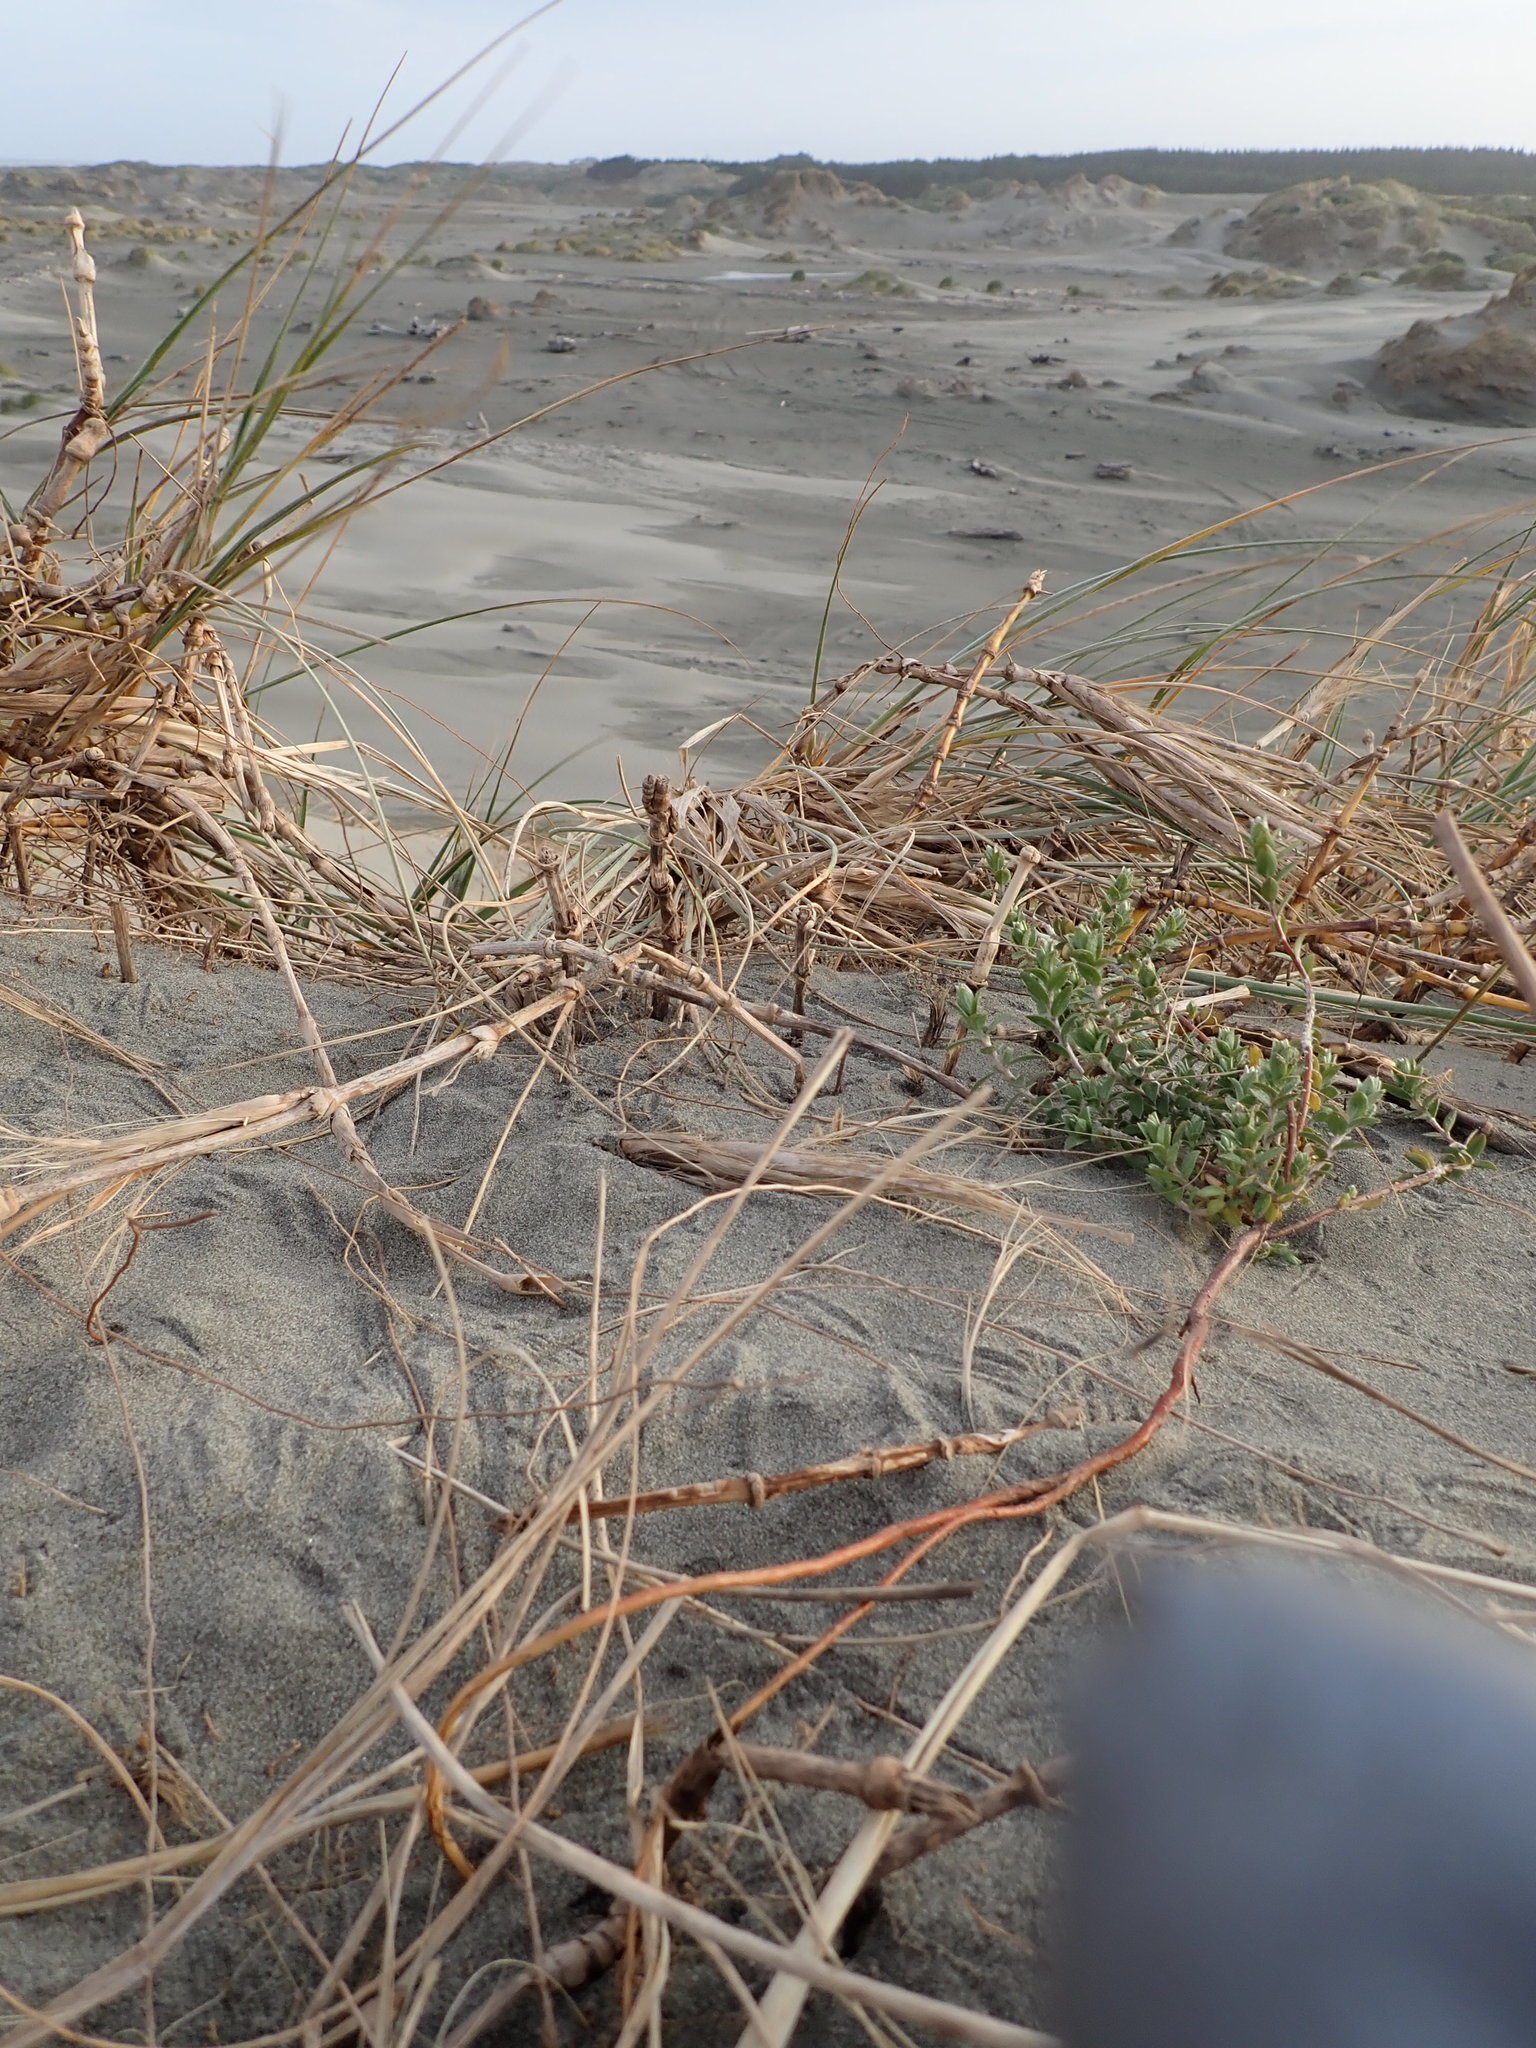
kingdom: Plantae
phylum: Tracheophyta
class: Magnoliopsida
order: Malvales
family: Thymelaeaceae
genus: Pimelea
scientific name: Pimelea villosa
